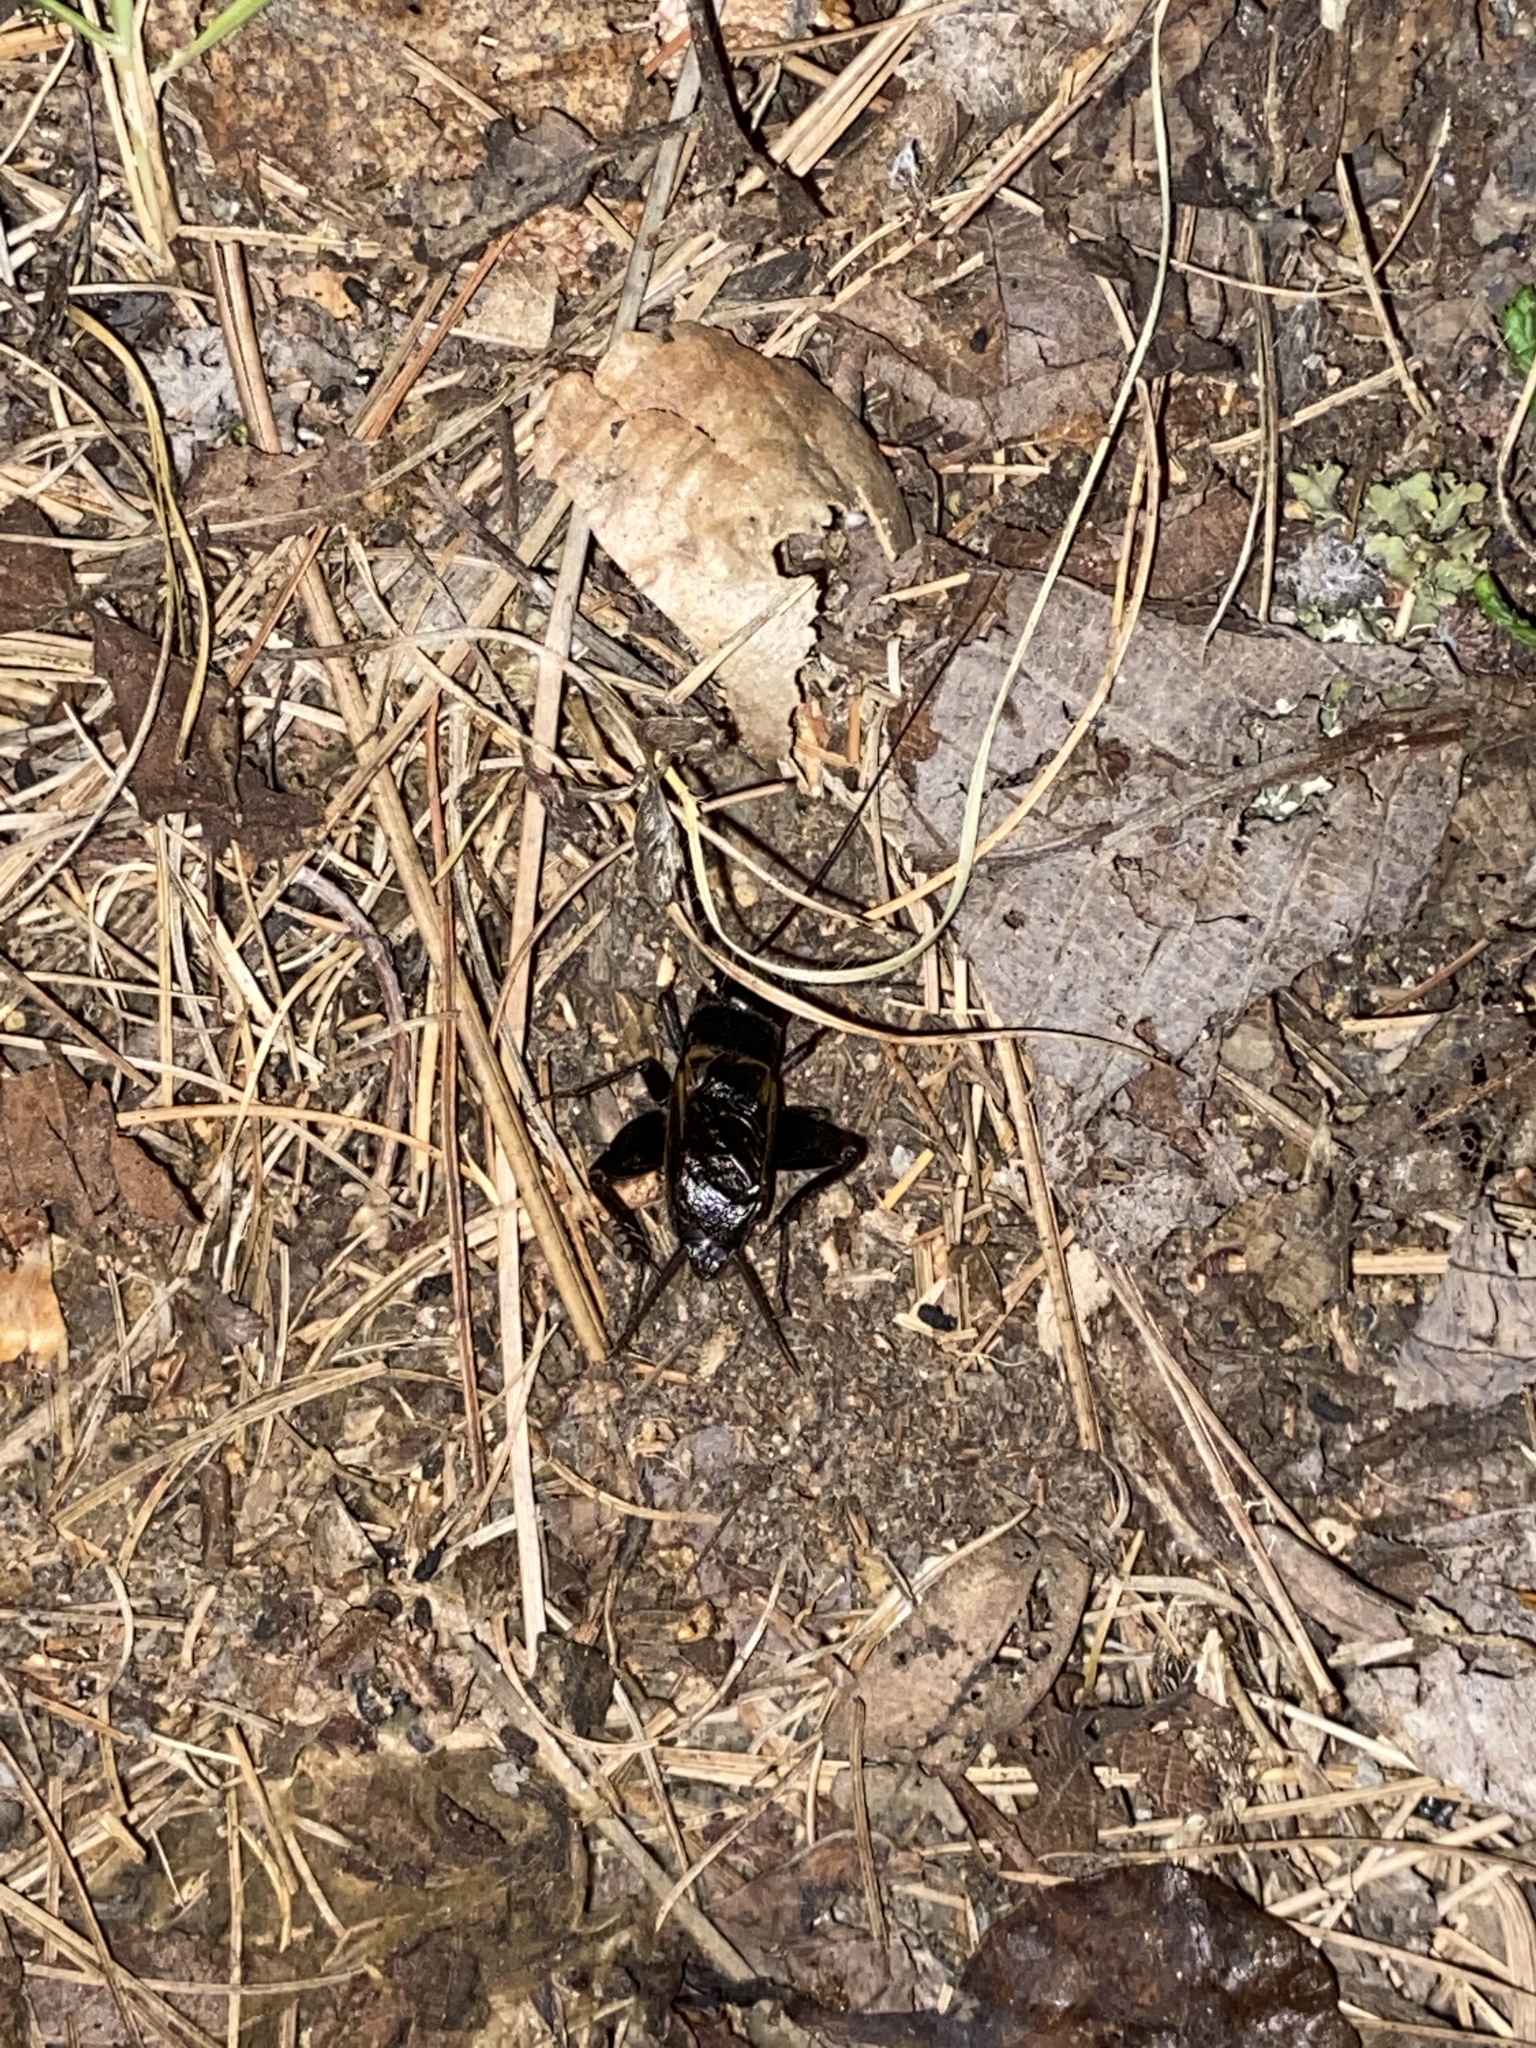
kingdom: Animalia
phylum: Arthropoda
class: Insecta
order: Orthoptera
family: Gryllidae
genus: Gryllus
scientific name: Gryllus pennsylvanicus
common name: Fall field cricket
